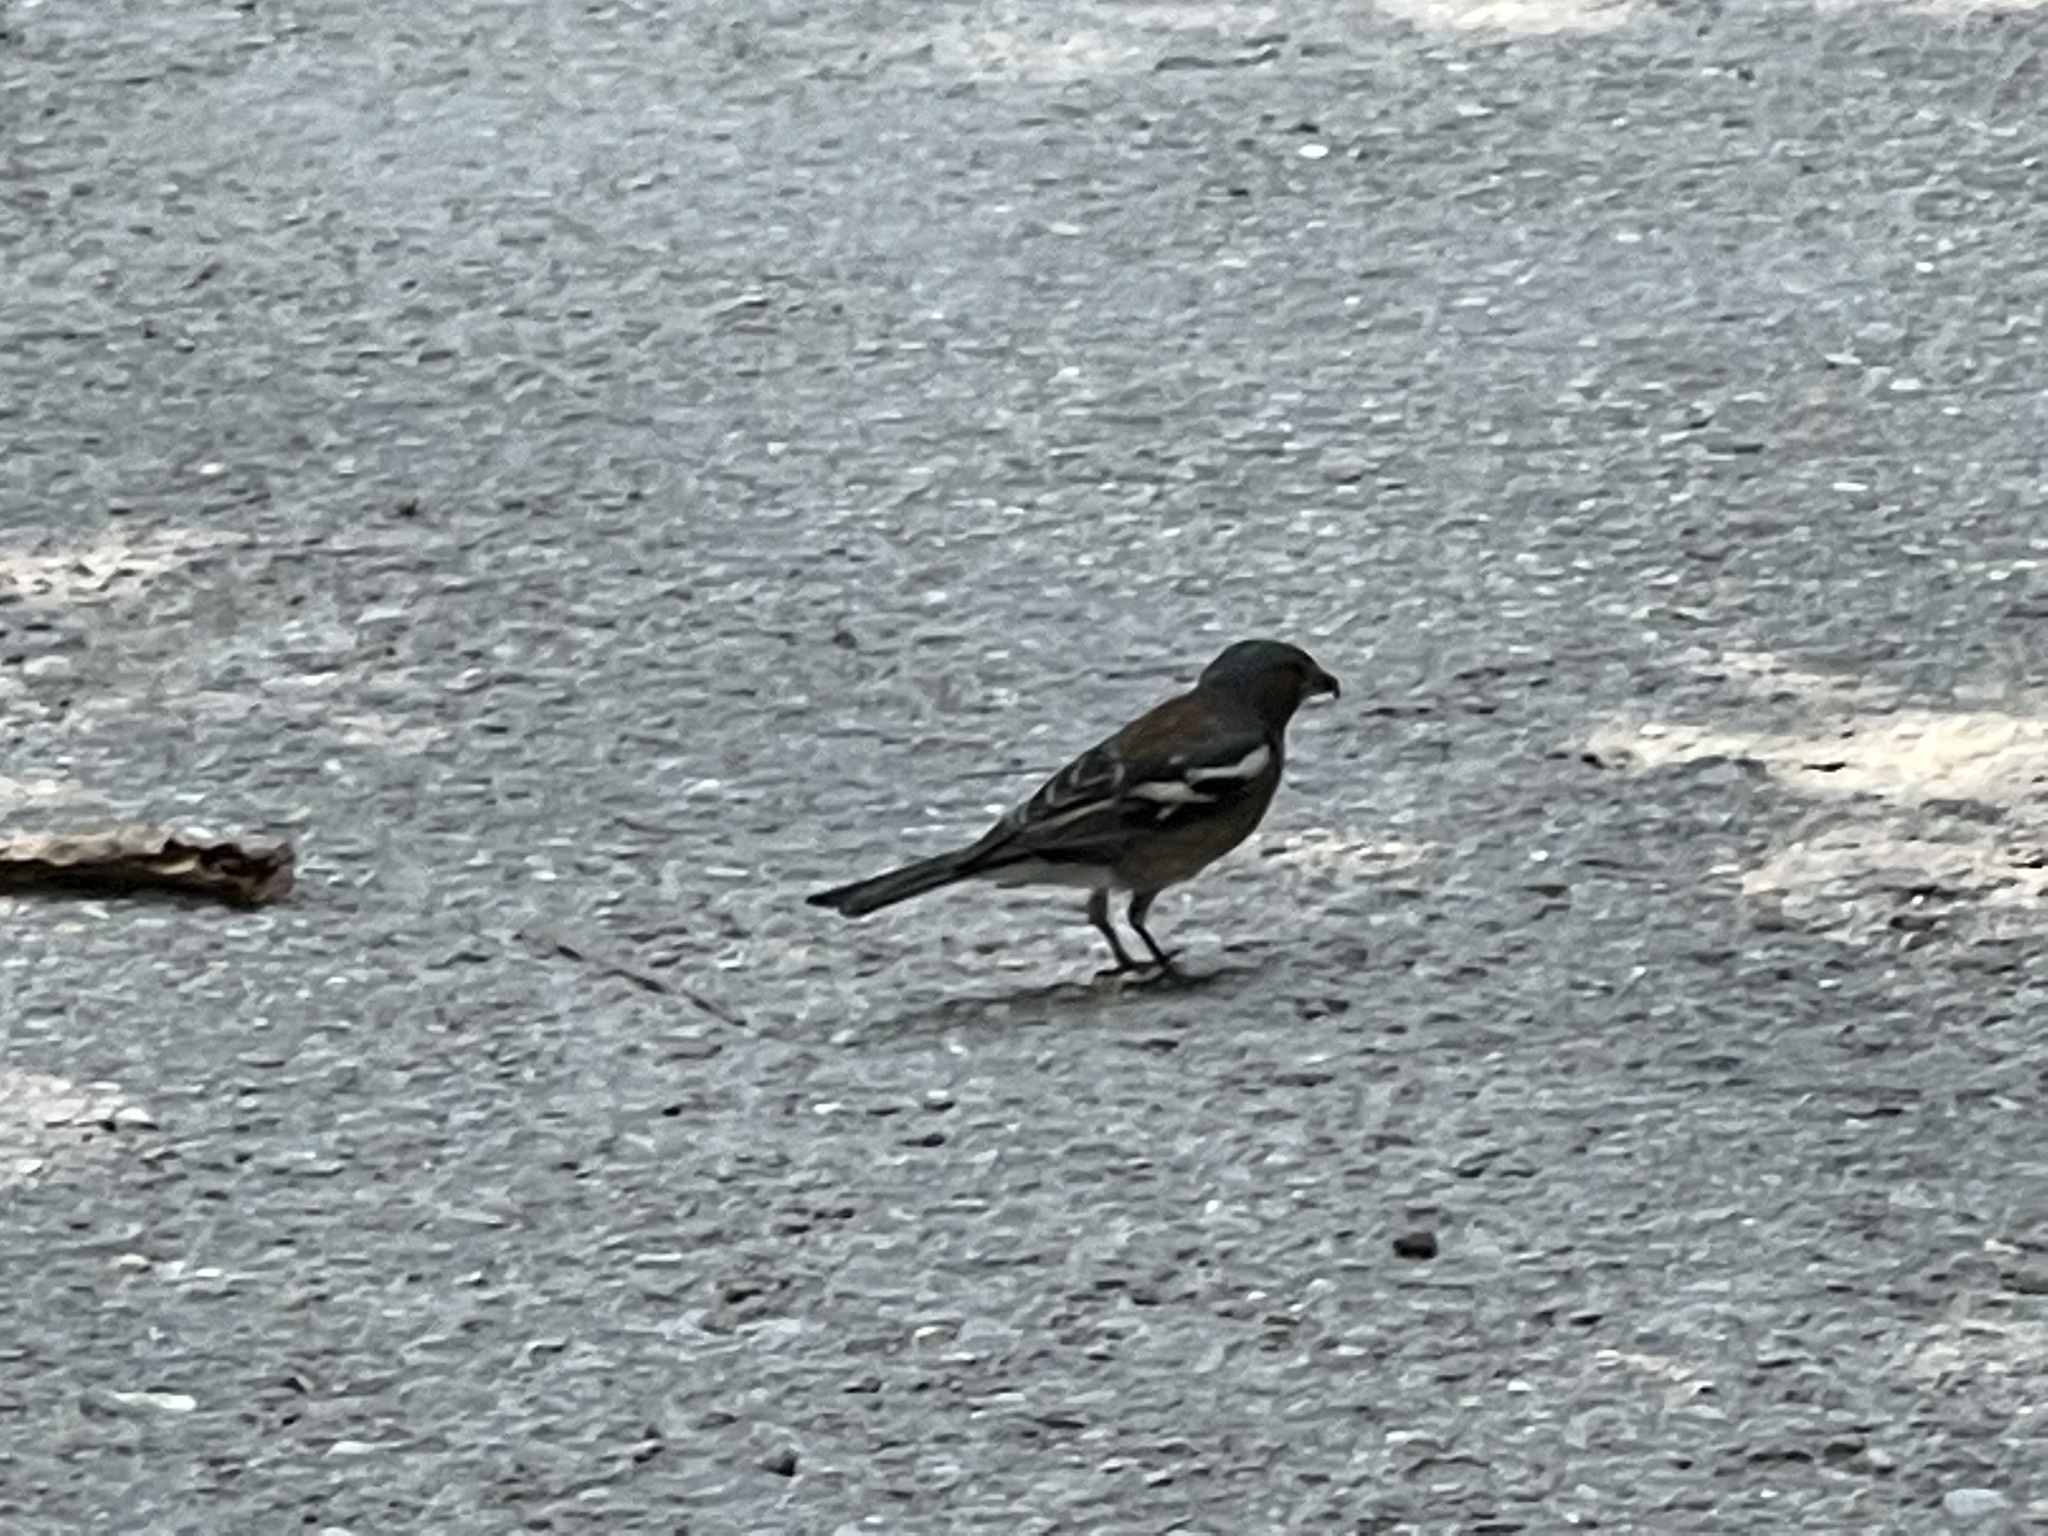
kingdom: Animalia
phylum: Chordata
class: Aves
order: Passeriformes
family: Fringillidae
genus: Fringilla
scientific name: Fringilla coelebs
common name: Common chaffinch
